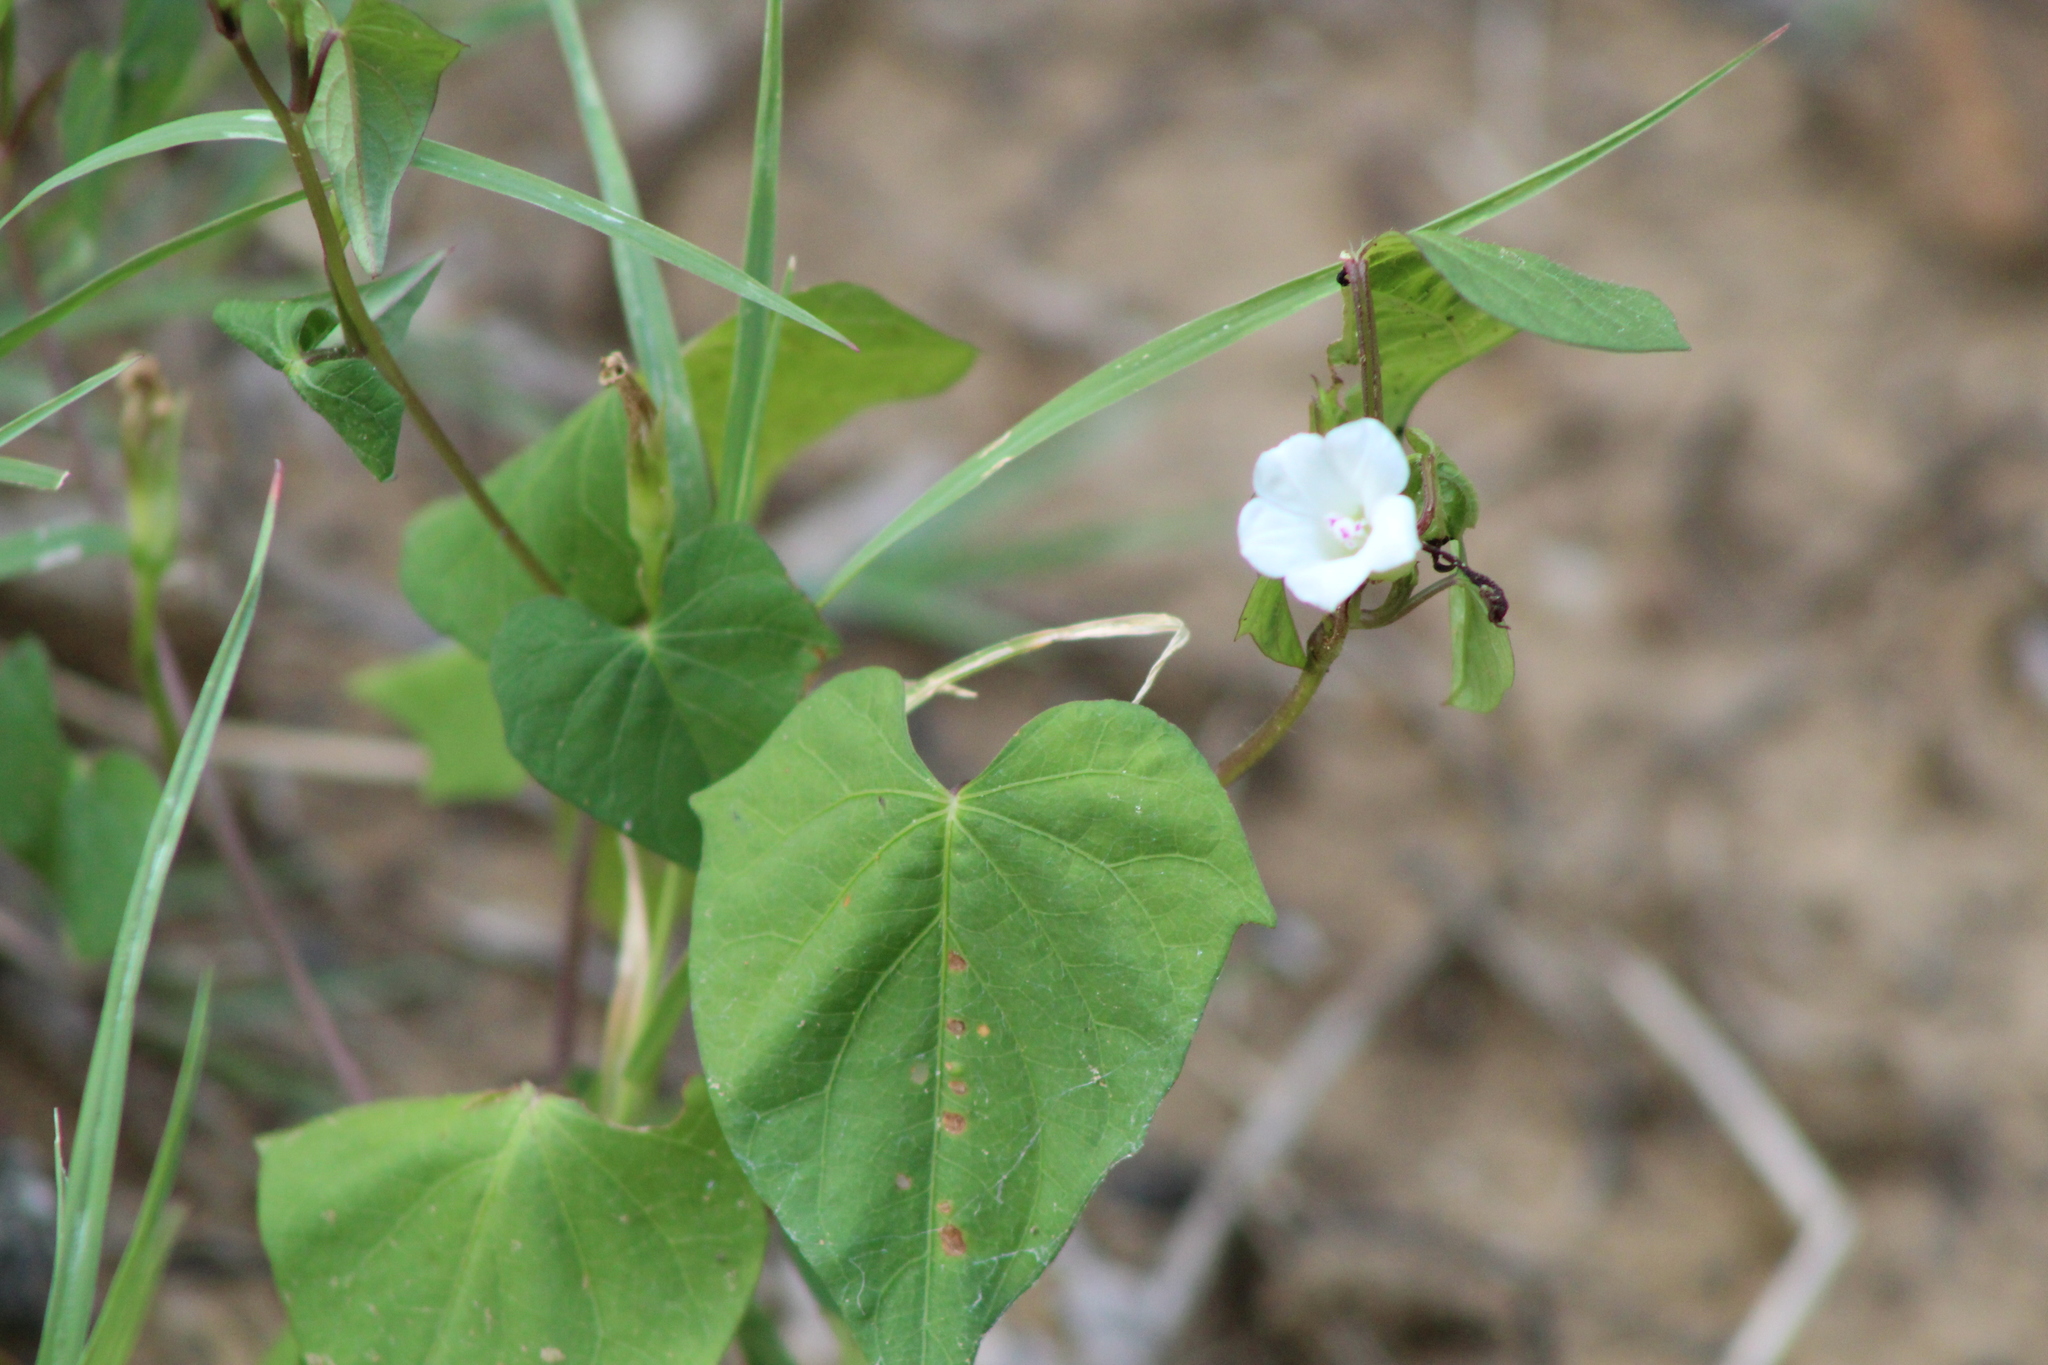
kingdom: Plantae
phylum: Tracheophyta
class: Magnoliopsida
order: Solanales
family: Convolvulaceae
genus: Ipomoea
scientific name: Ipomoea lacunosa
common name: White morning-glory
